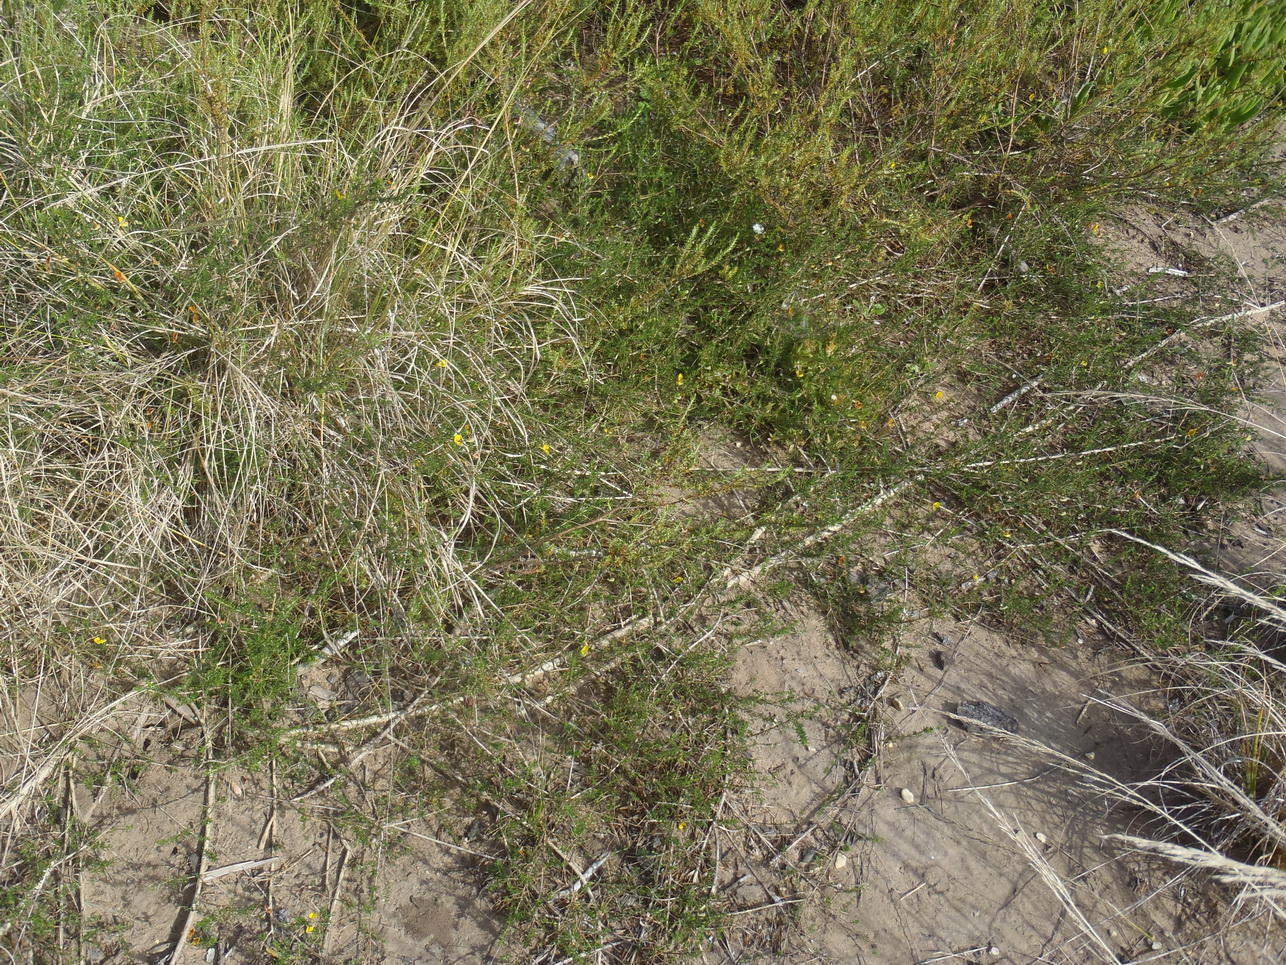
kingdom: Plantae
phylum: Tracheophyta
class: Magnoliopsida
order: Fabales
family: Fabaceae
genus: Aspalathus
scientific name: Aspalathus biflora
